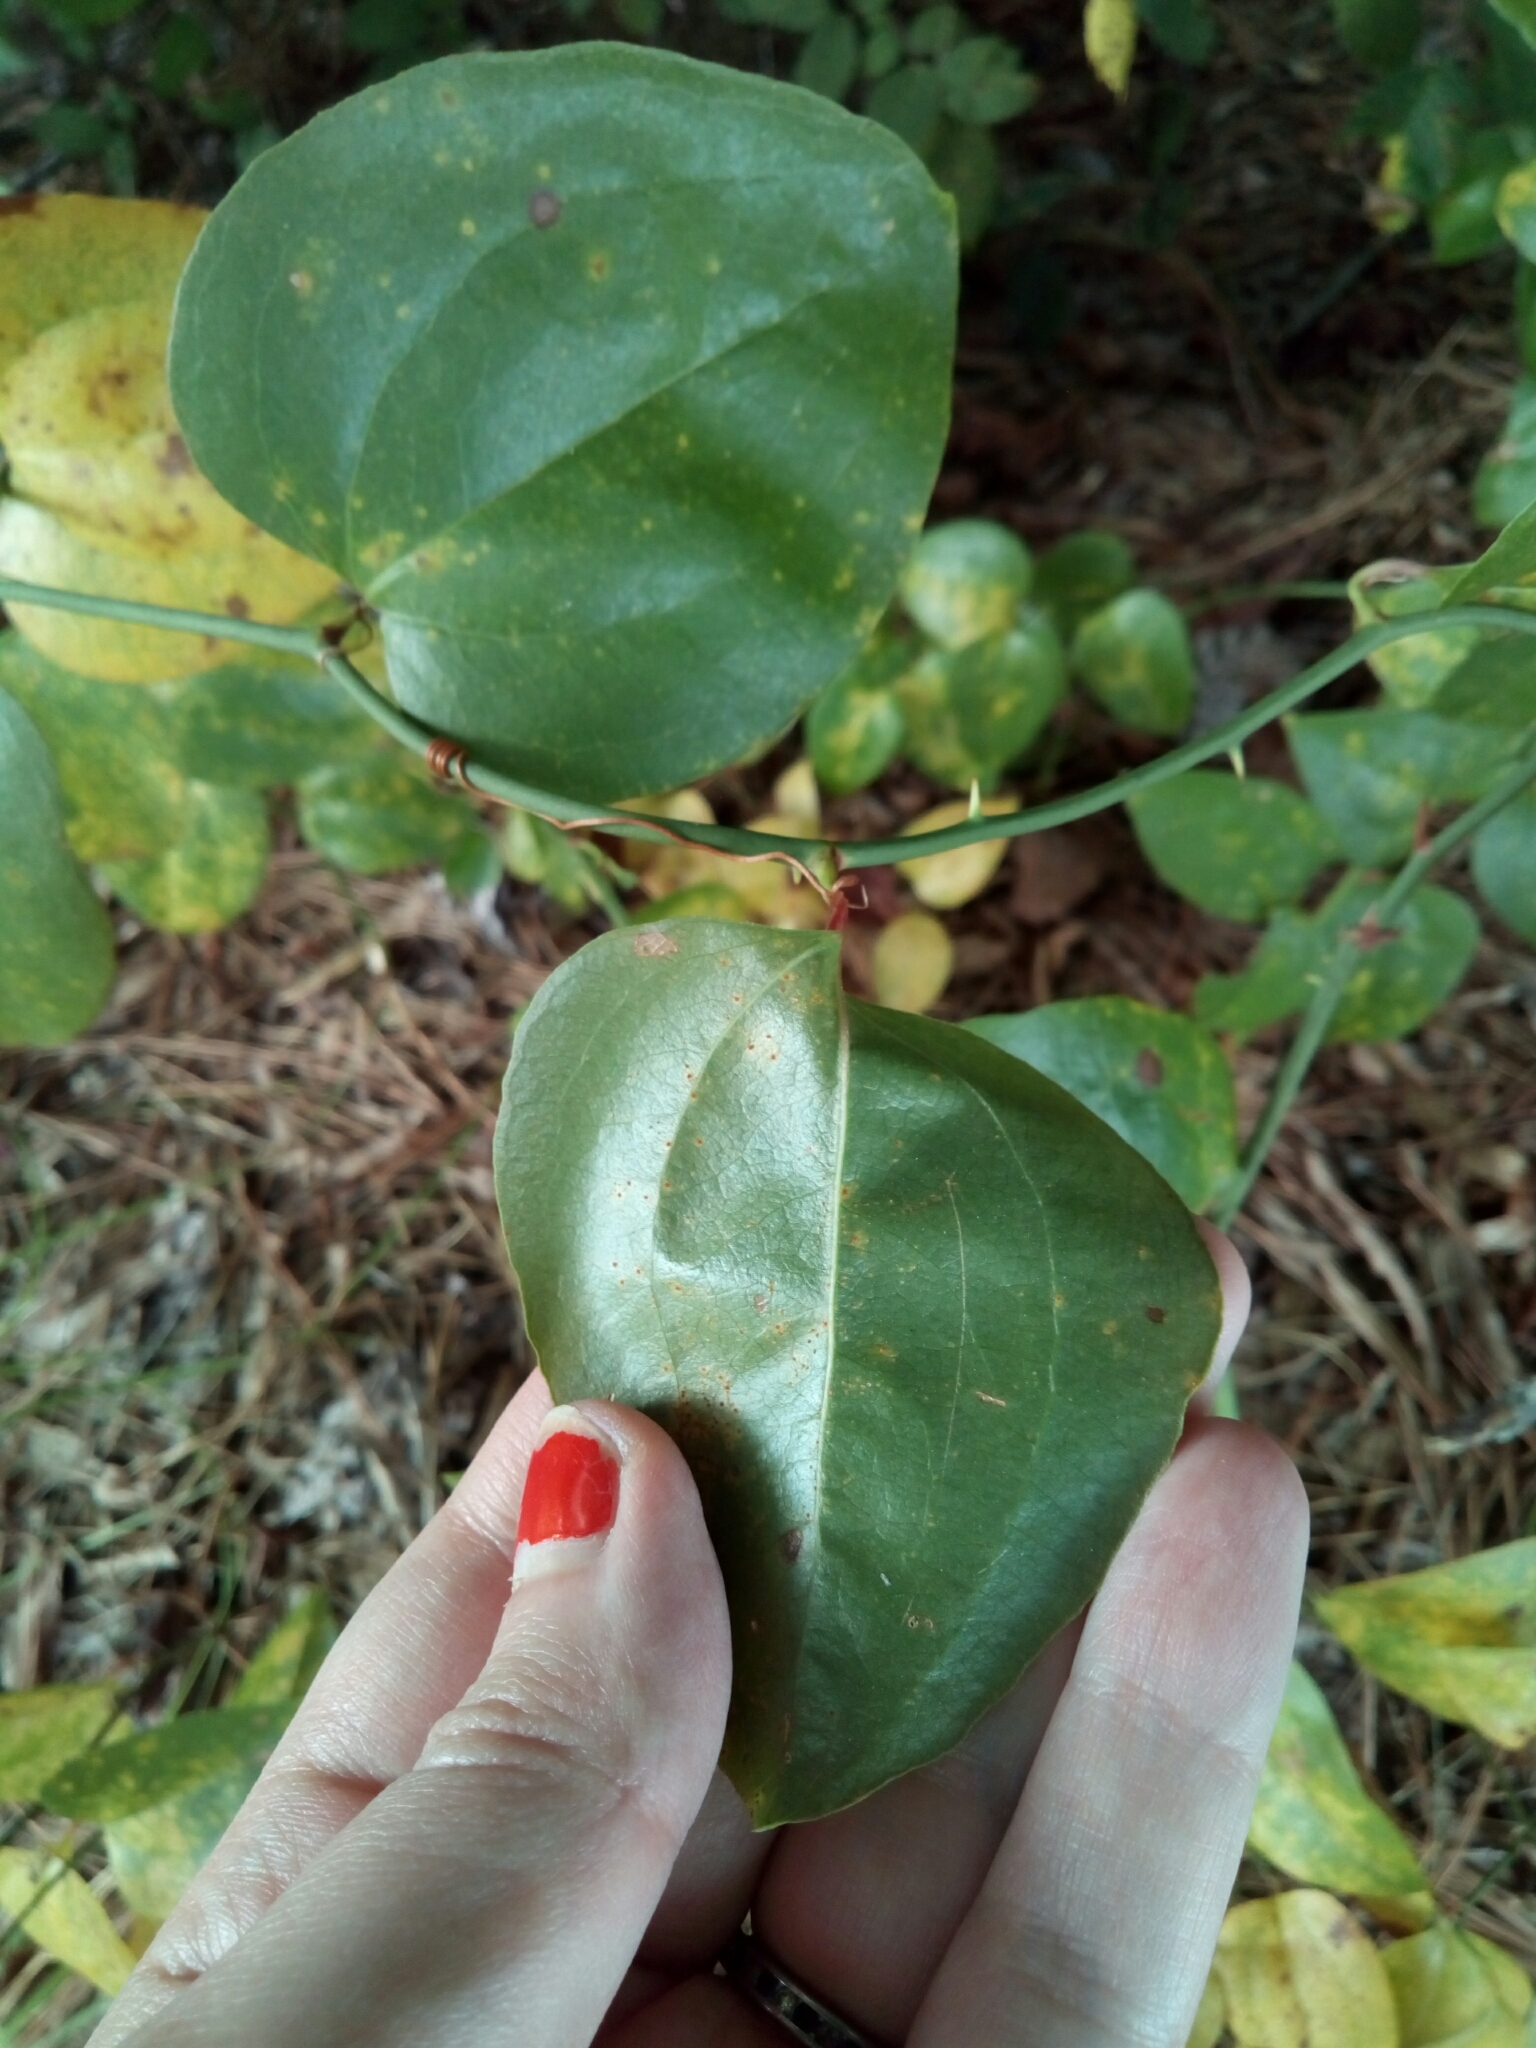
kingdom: Plantae
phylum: Tracheophyta
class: Liliopsida
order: Liliales
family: Smilacaceae
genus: Smilax
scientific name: Smilax rotundifolia
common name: Bullbriar
